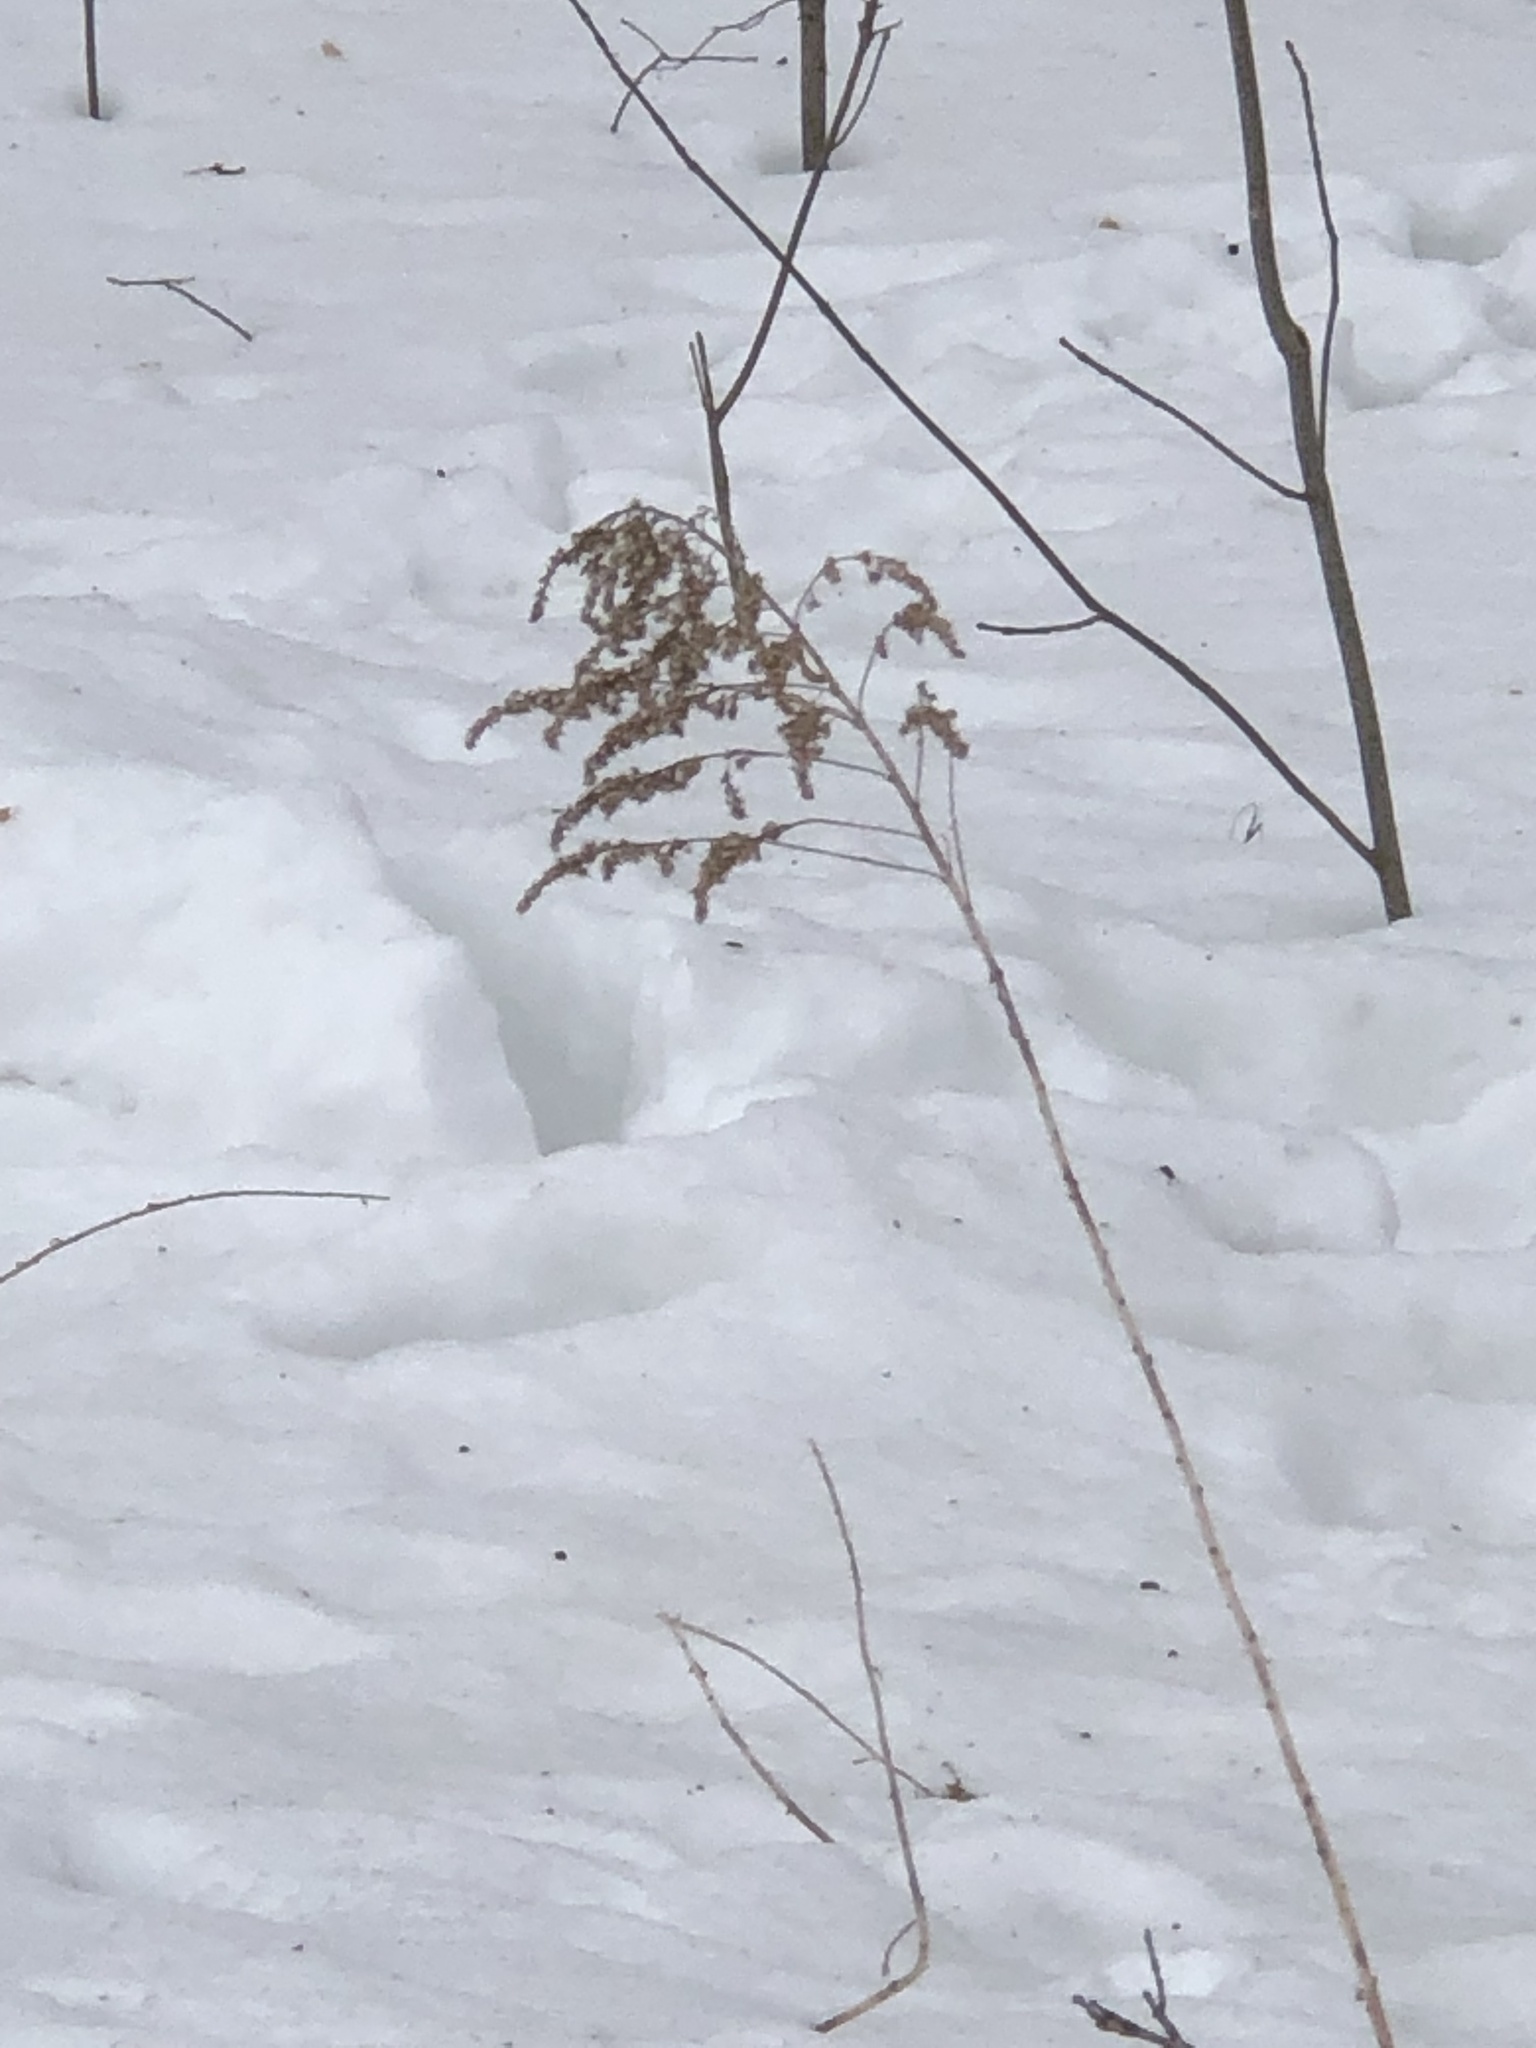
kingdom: Plantae
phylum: Tracheophyta
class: Magnoliopsida
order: Asterales
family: Asteraceae
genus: Solidago
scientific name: Solidago
